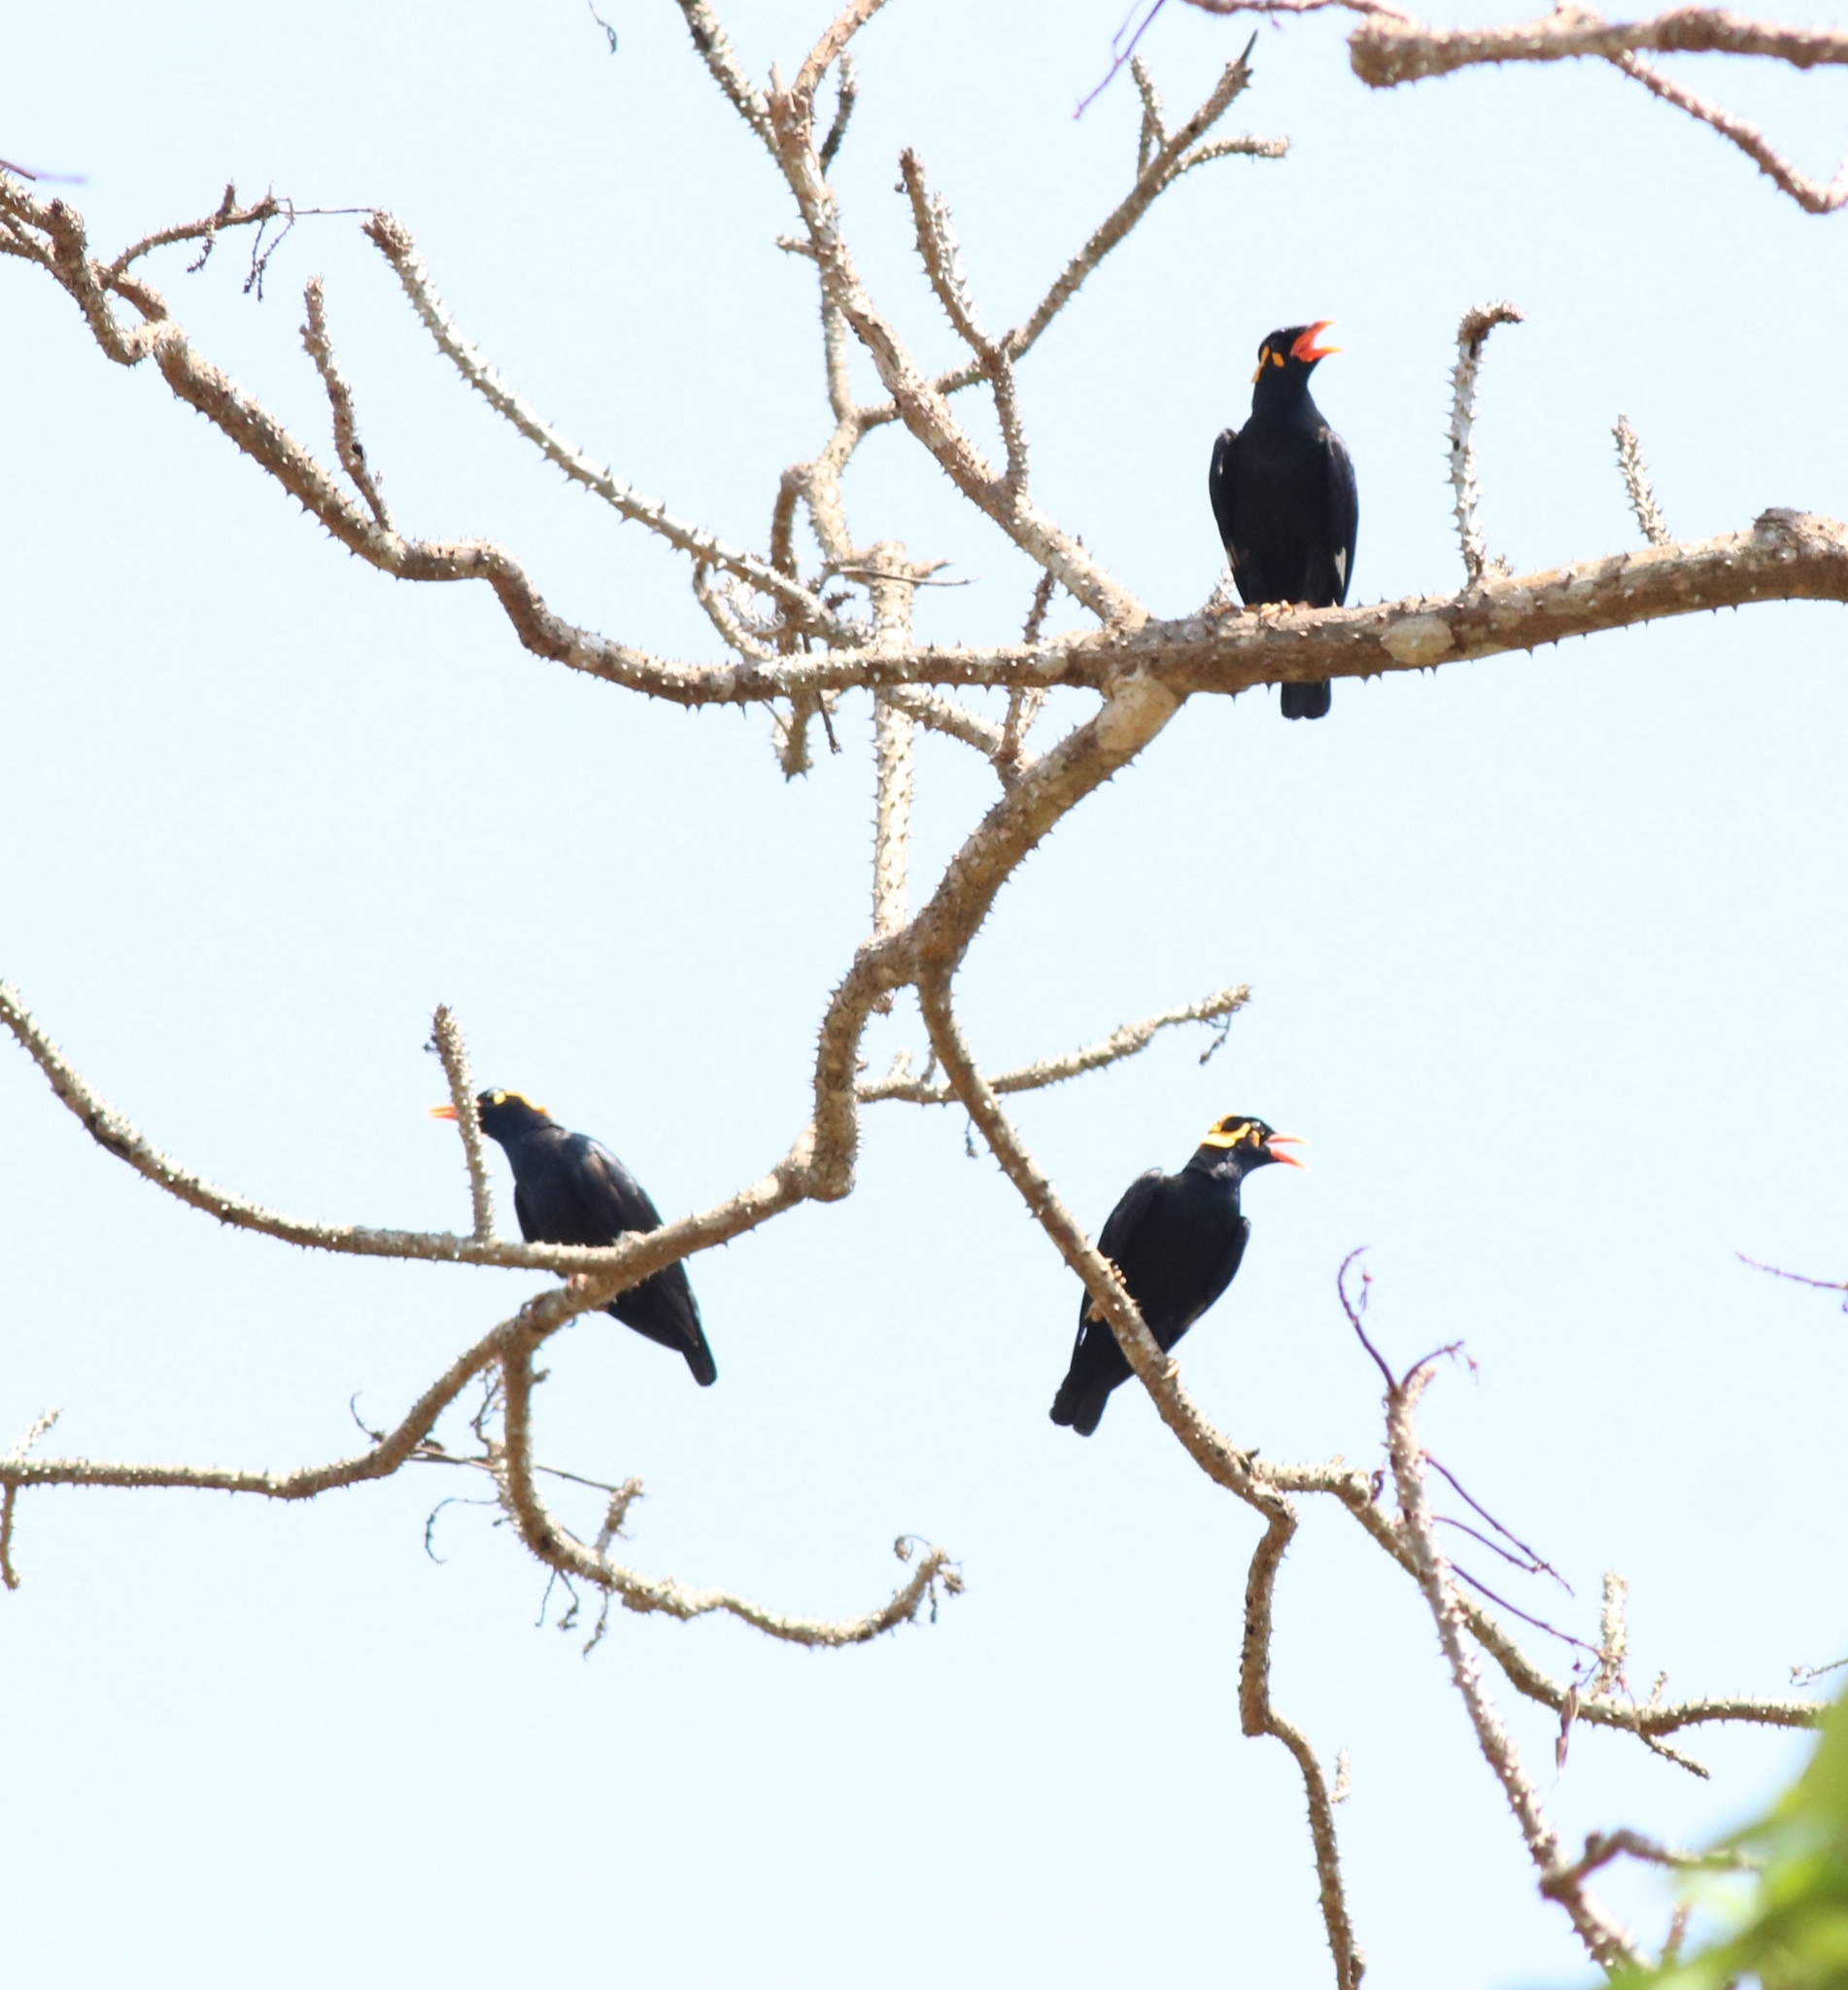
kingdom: Animalia
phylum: Chordata
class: Aves
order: Passeriformes
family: Sturnidae
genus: Gracula
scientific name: Gracula indica
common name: Southern hill myna
